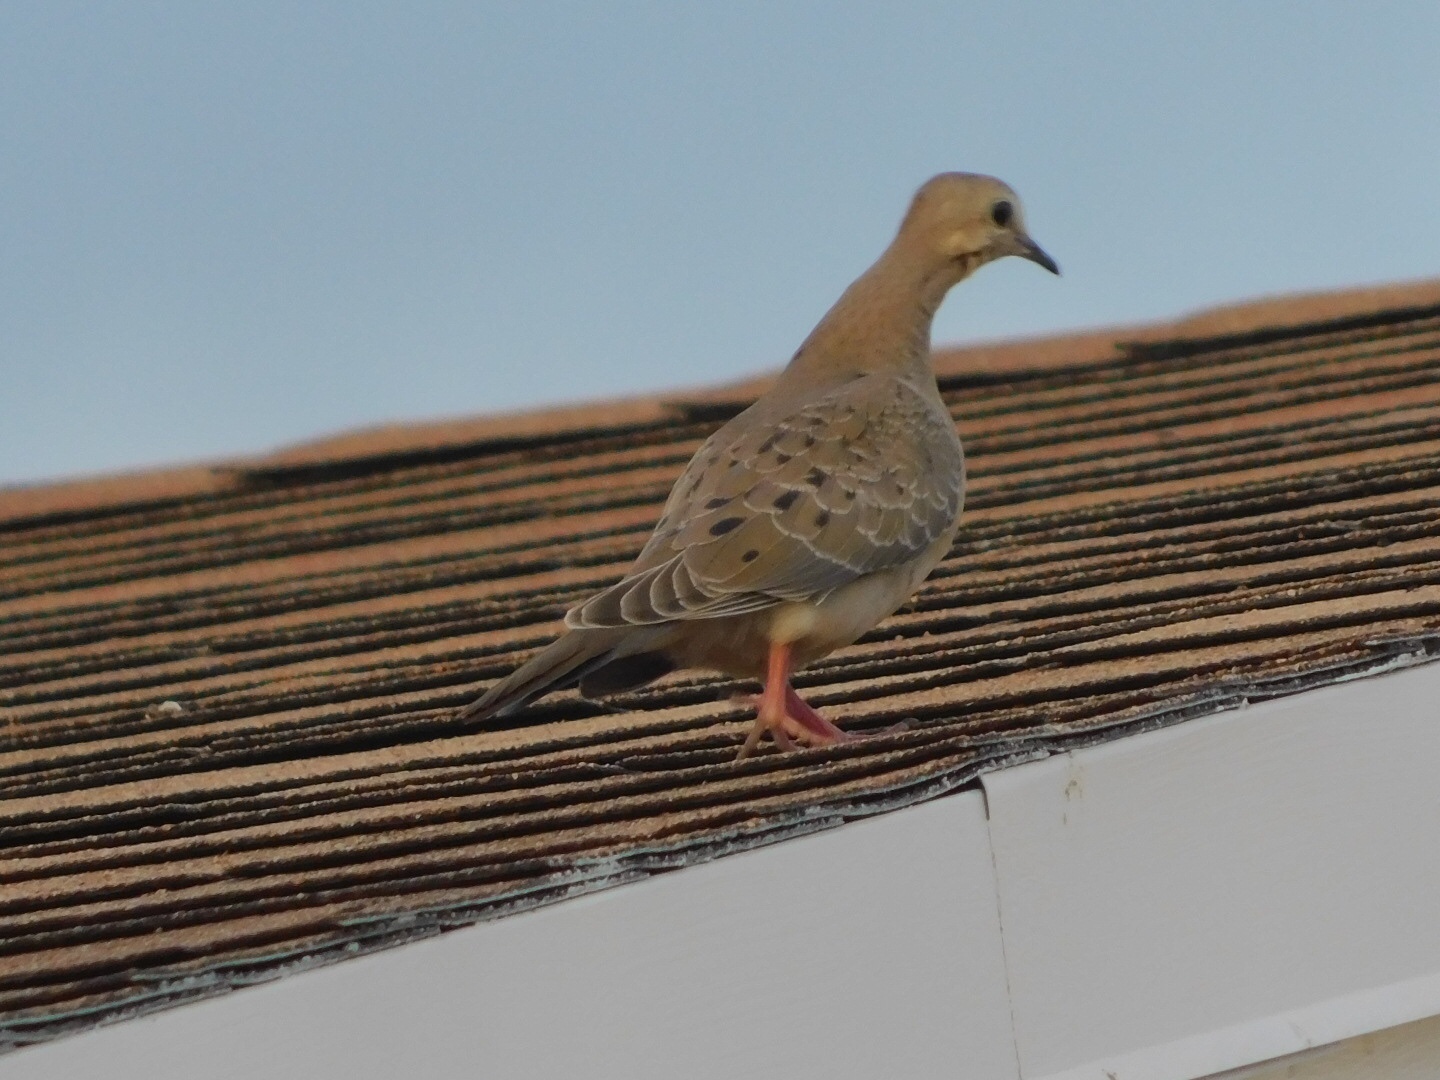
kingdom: Animalia
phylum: Chordata
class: Aves
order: Columbiformes
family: Columbidae
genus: Zenaida
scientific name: Zenaida macroura
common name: Mourning dove
